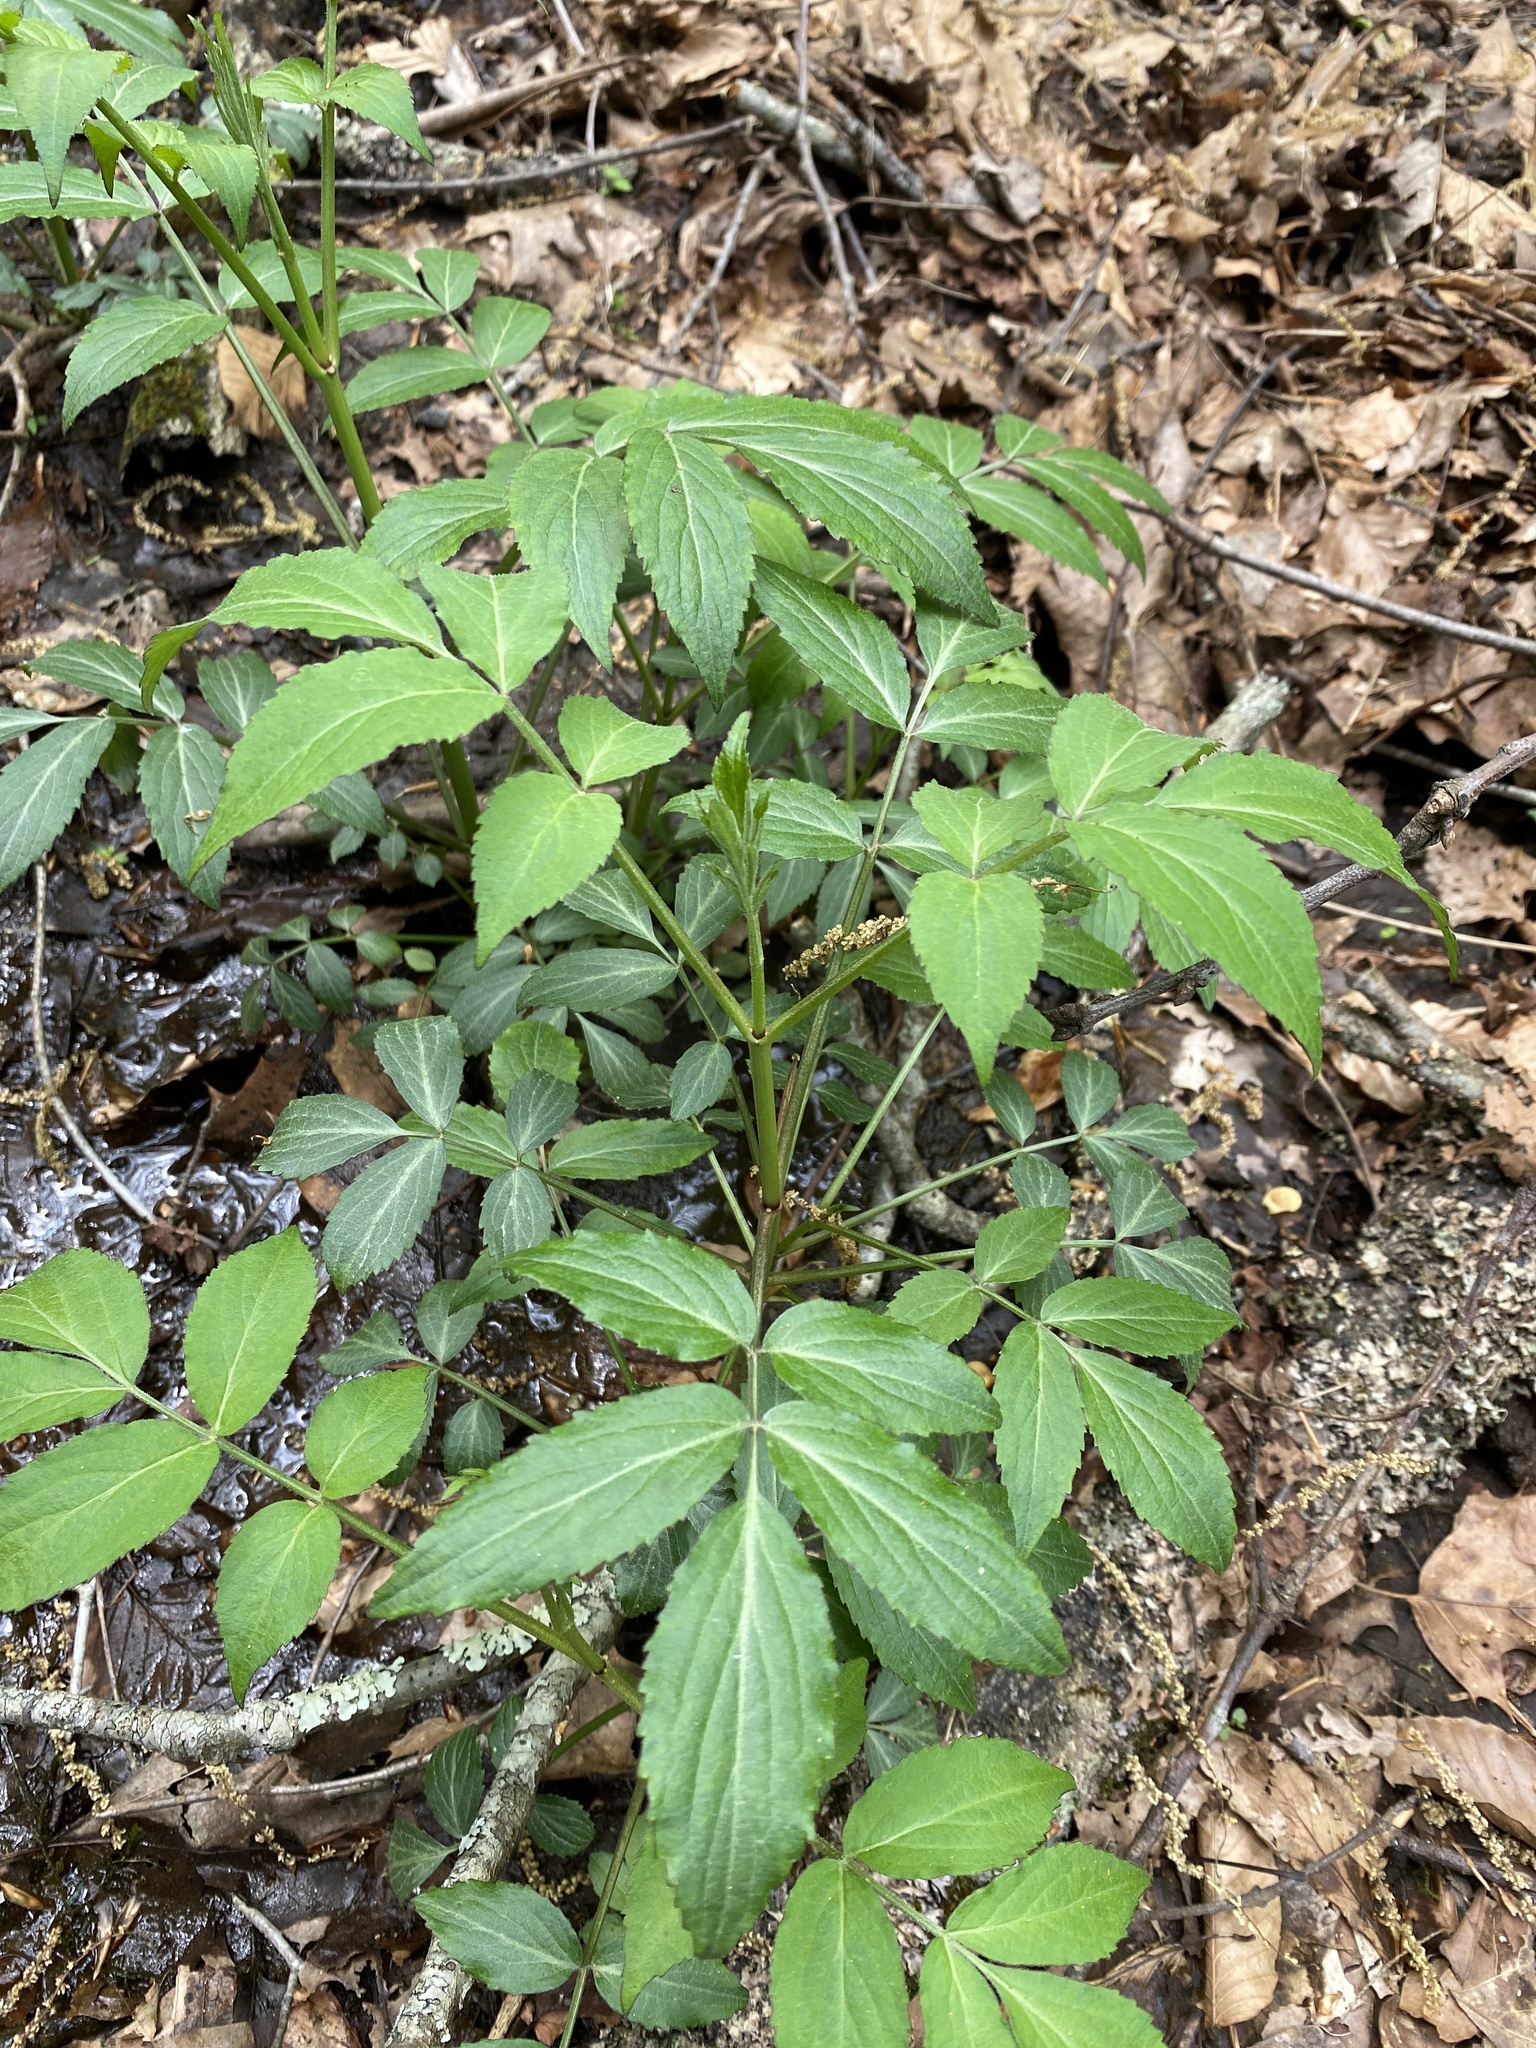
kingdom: Plantae
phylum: Tracheophyta
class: Magnoliopsida
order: Dipsacales
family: Viburnaceae
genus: Sambucus
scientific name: Sambucus canadensis
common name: American elder
